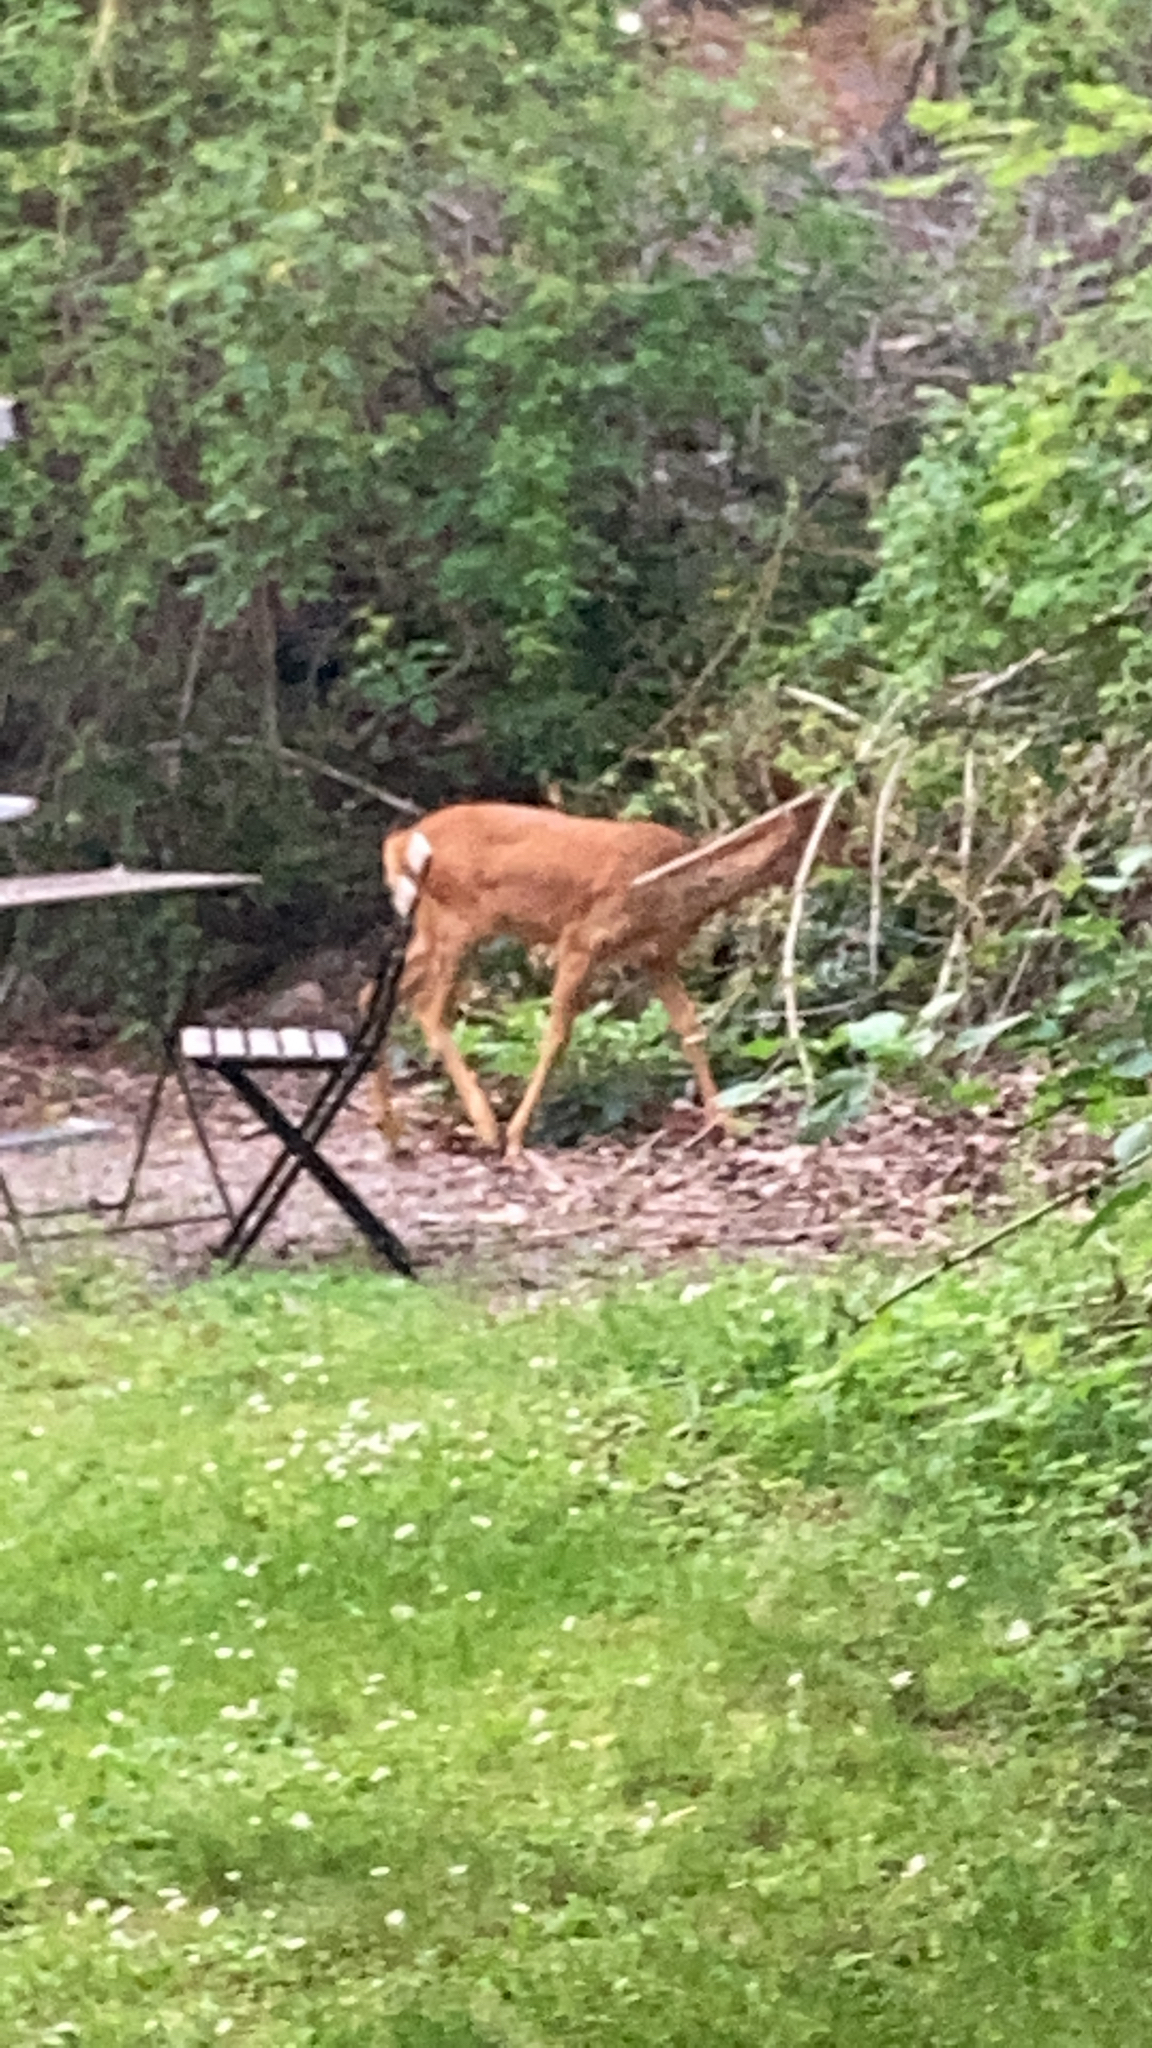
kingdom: Animalia
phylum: Chordata
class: Mammalia
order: Artiodactyla
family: Cervidae
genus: Capreolus
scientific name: Capreolus capreolus
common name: Western roe deer
